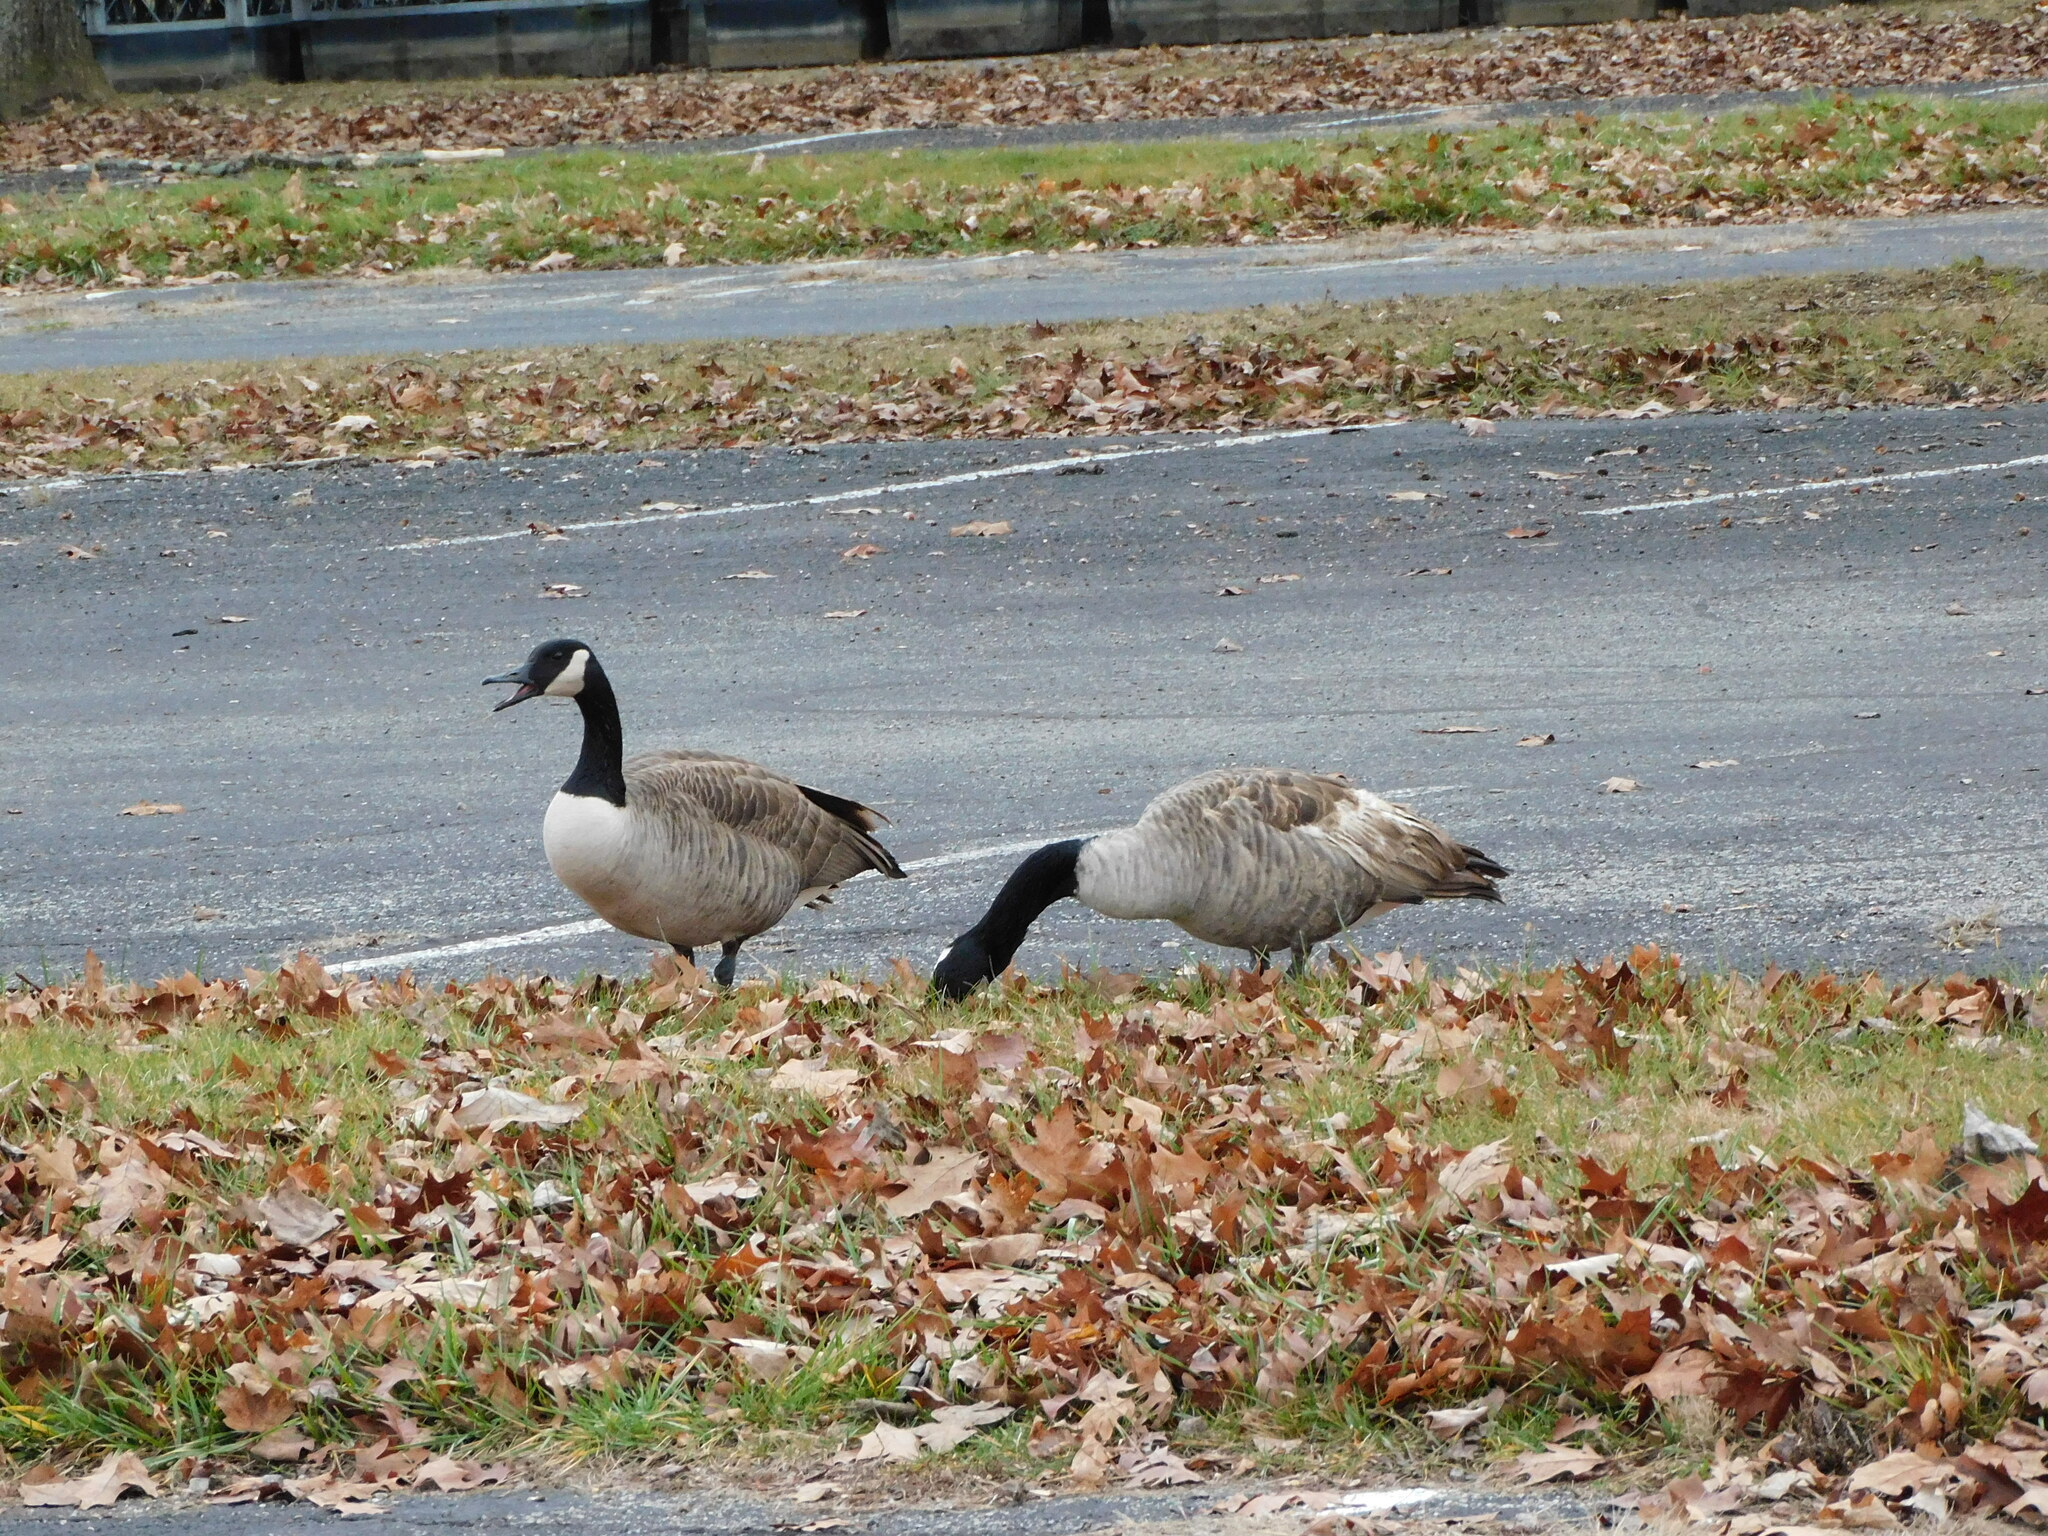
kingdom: Animalia
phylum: Chordata
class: Aves
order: Anseriformes
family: Anatidae
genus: Branta
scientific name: Branta canadensis
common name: Canada goose
